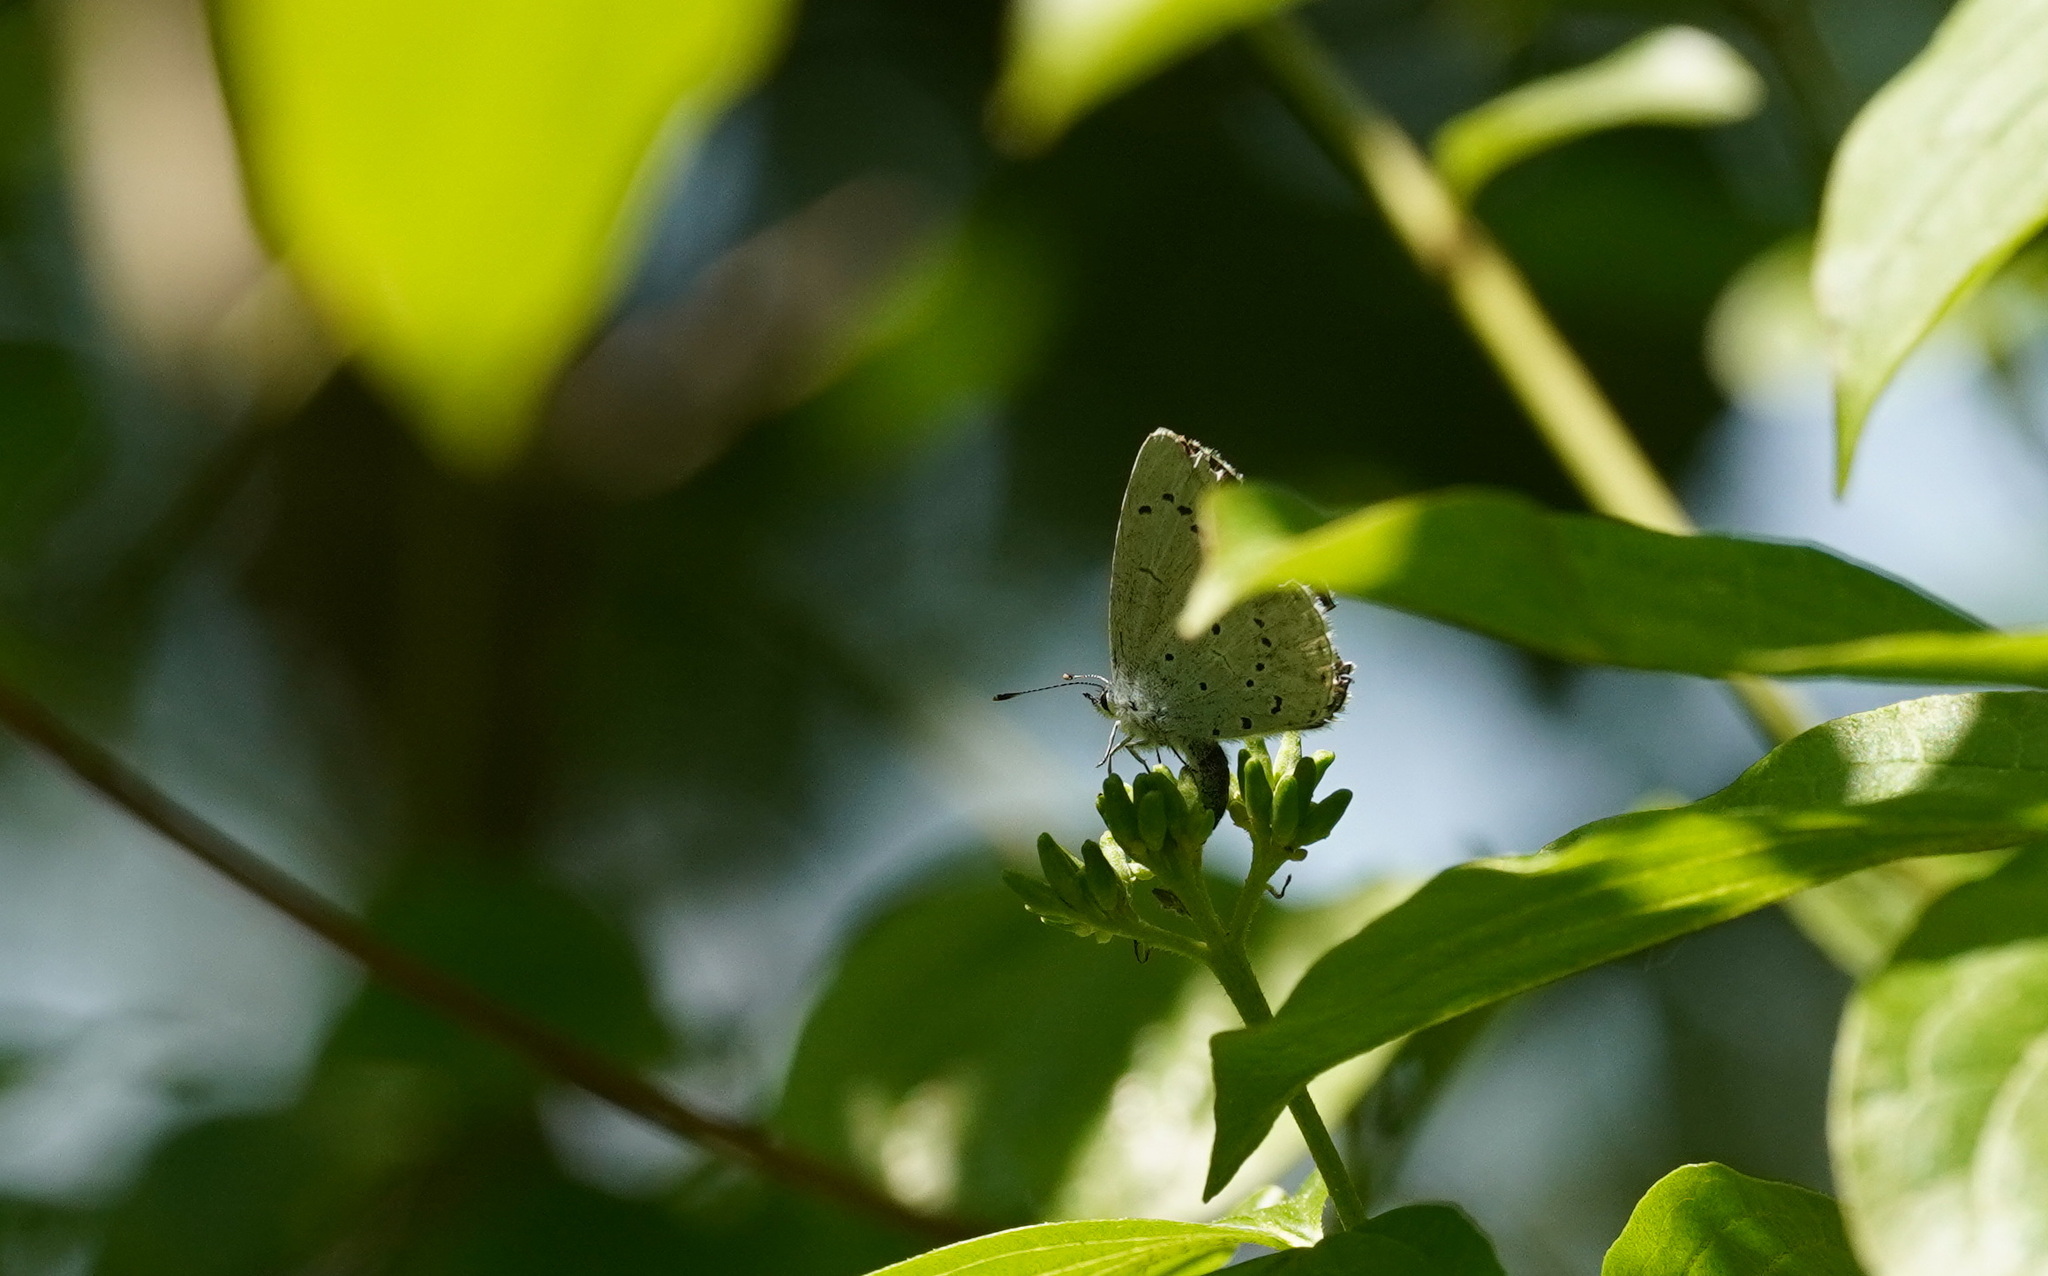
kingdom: Animalia
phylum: Arthropoda
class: Insecta
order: Lepidoptera
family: Lycaenidae
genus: Celastrina
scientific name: Celastrina argiolus
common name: Holly blue
